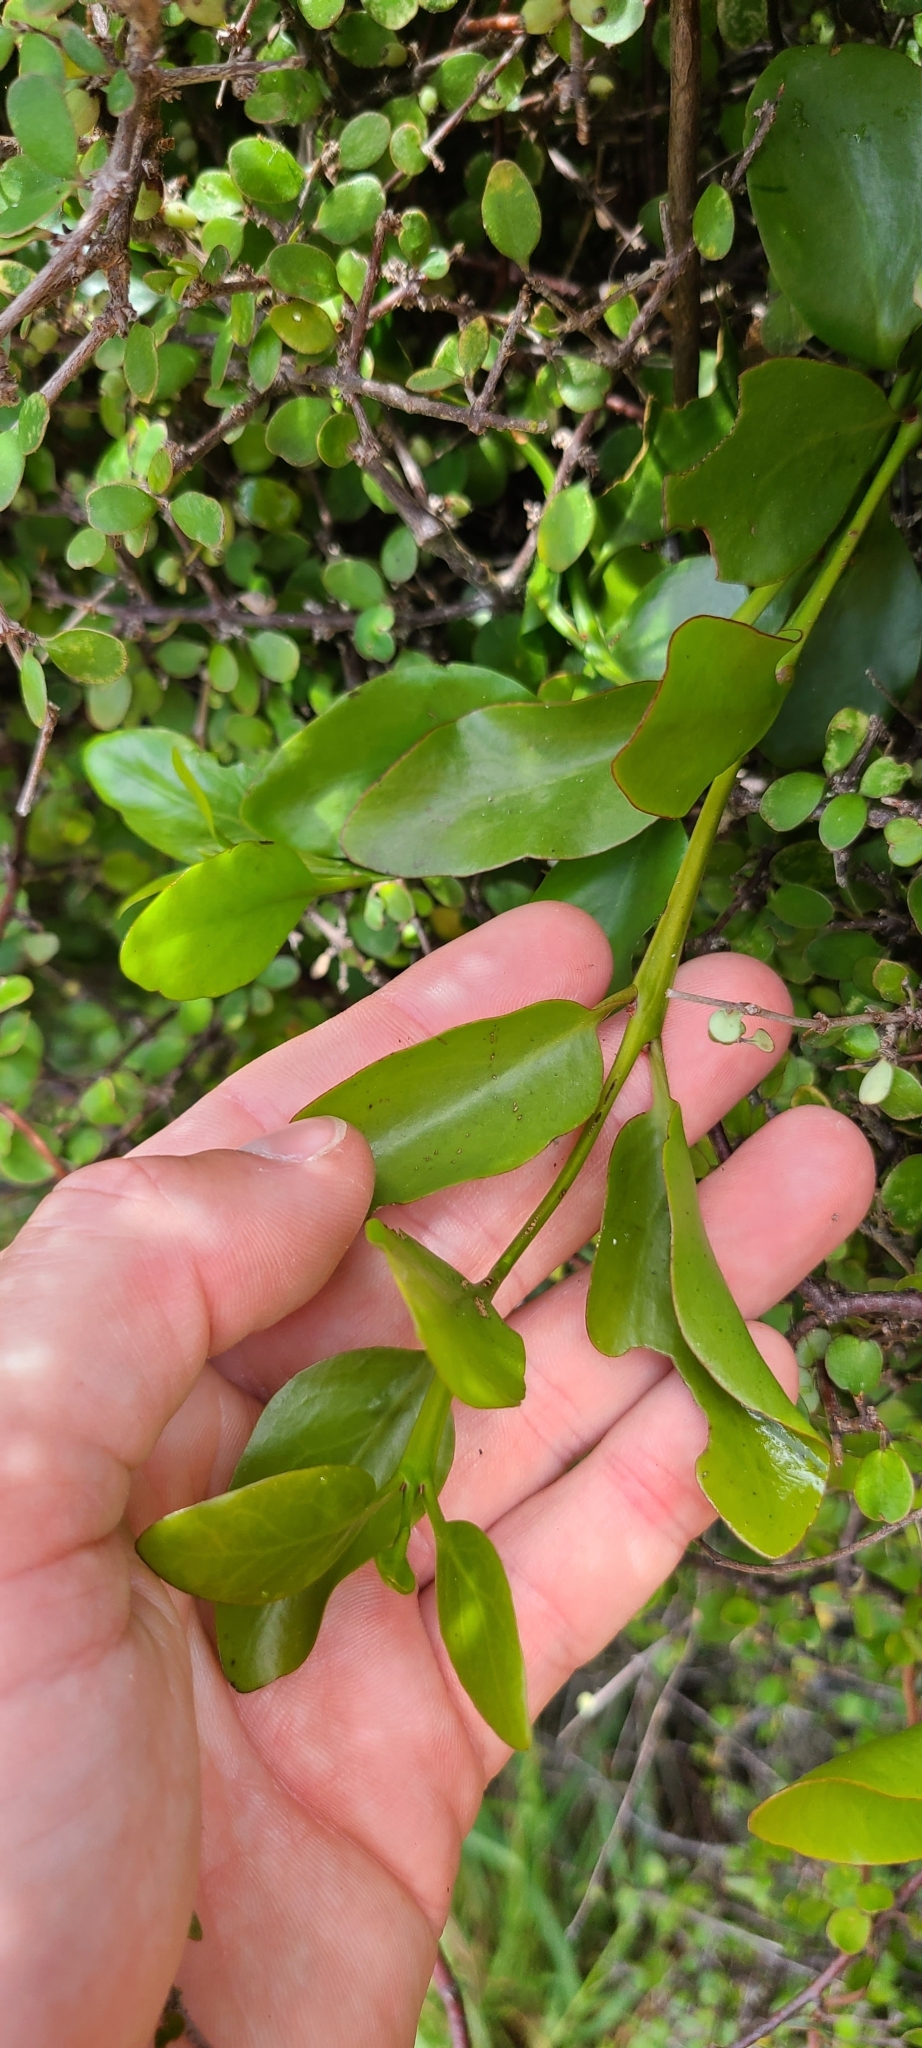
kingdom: Plantae
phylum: Tracheophyta
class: Magnoliopsida
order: Santalales
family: Loranthaceae
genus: Ileostylus
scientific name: Ileostylus micranthus
